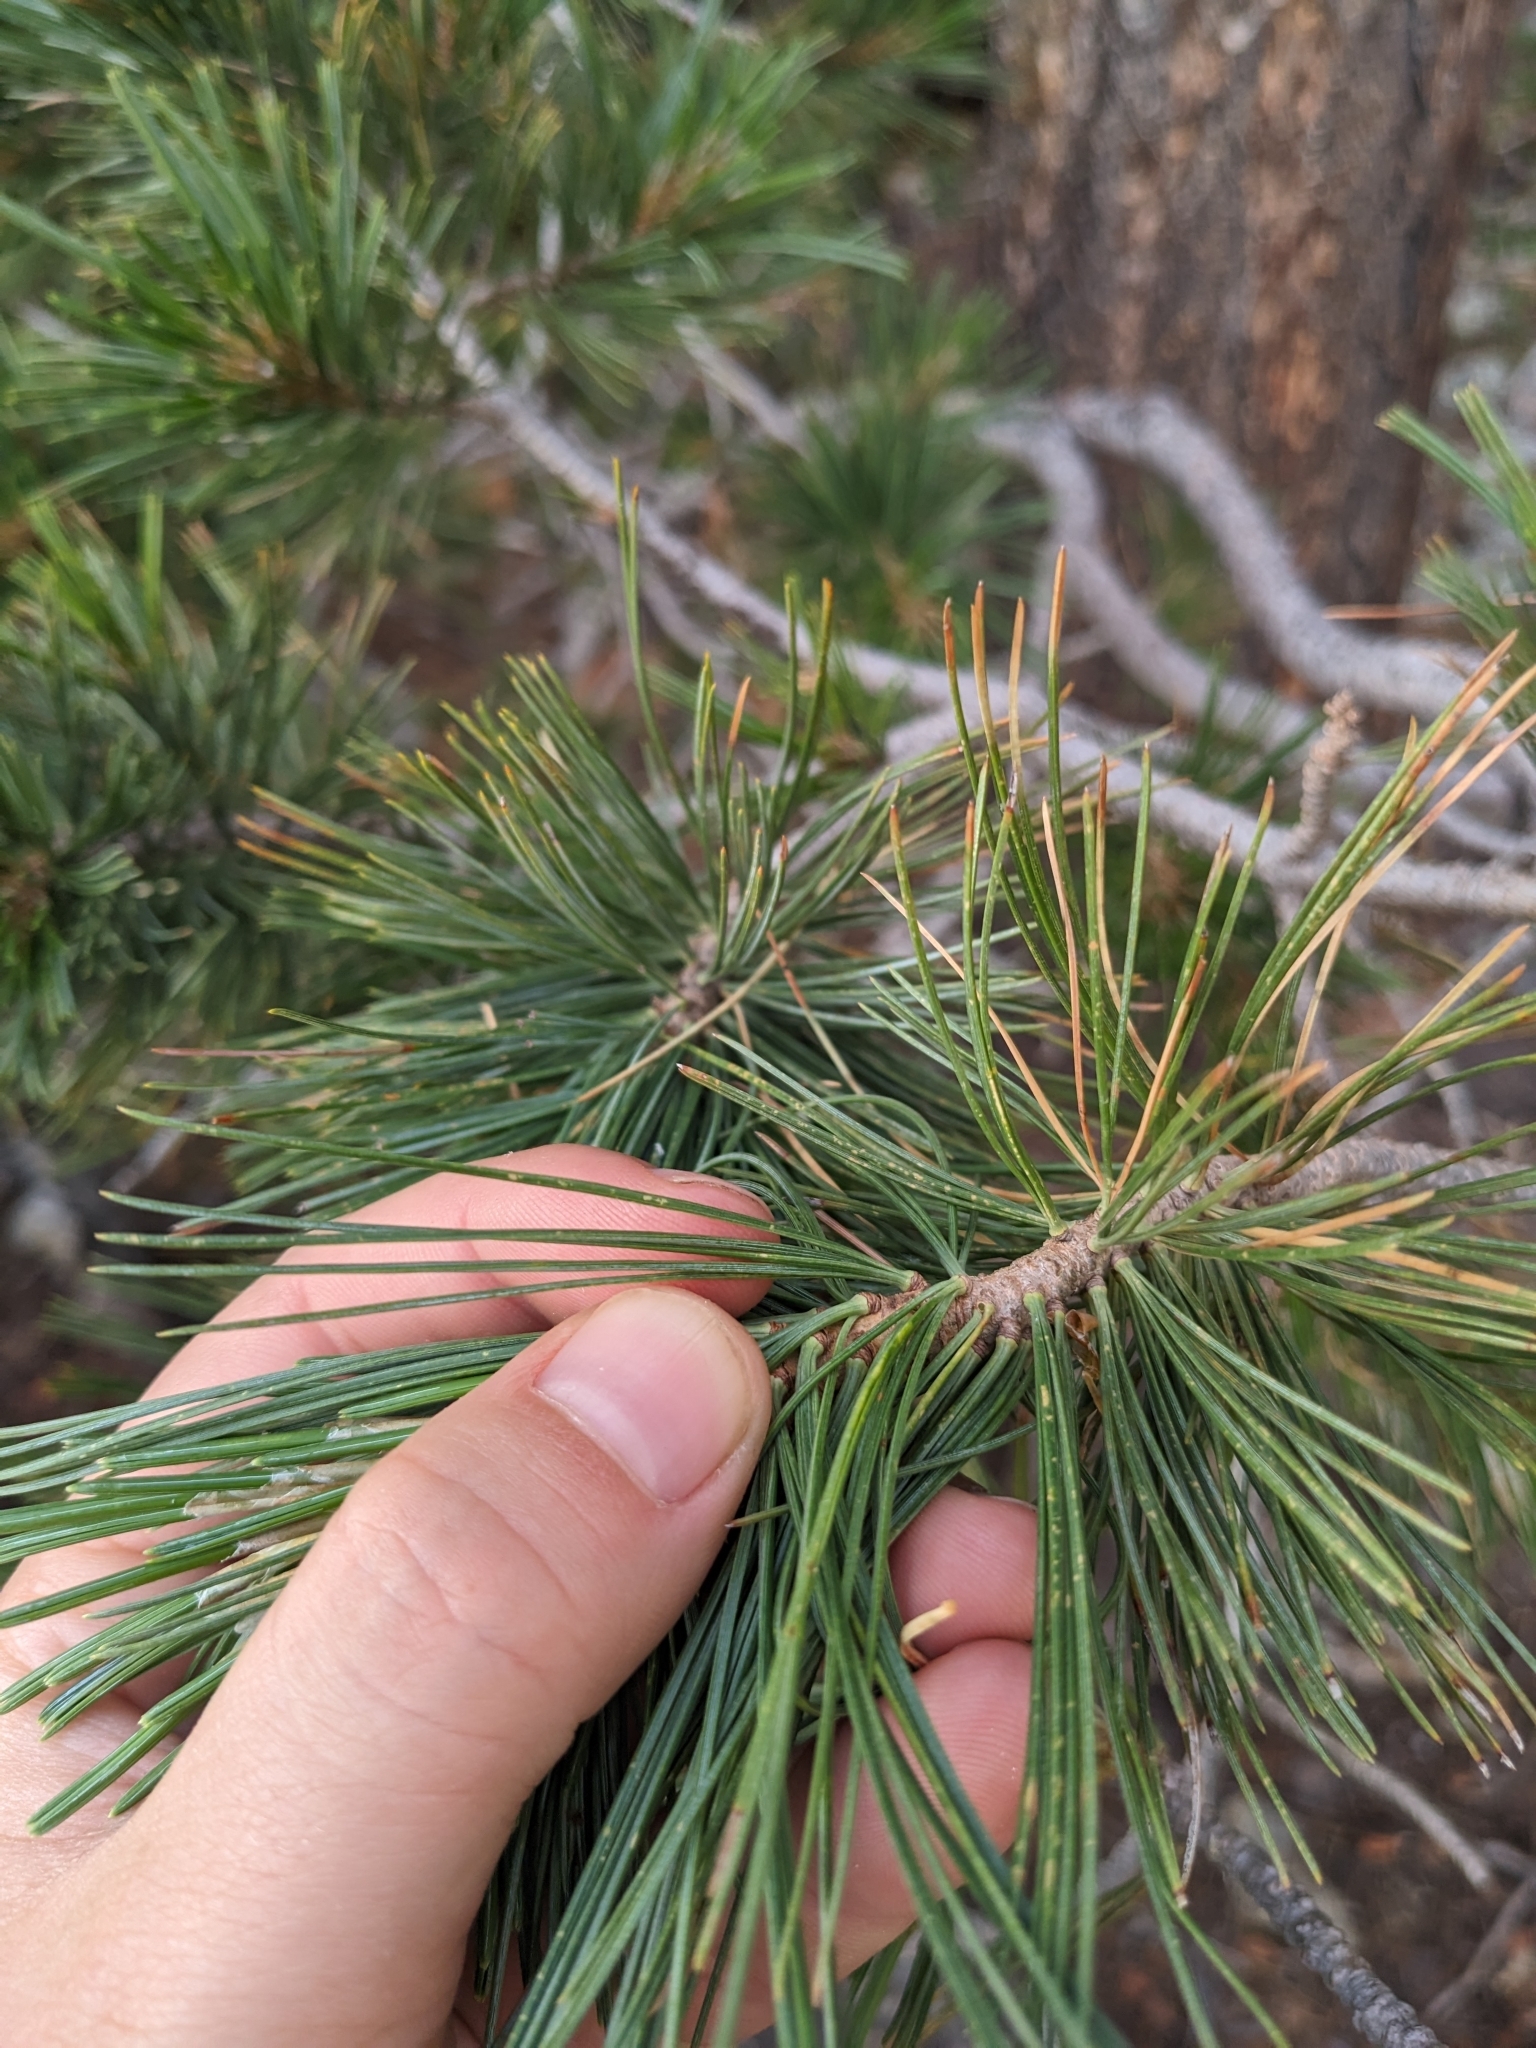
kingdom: Plantae
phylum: Tracheophyta
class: Pinopsida
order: Pinales
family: Pinaceae
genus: Pinus
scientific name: Pinus strobiformis
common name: Southwestern white pine
